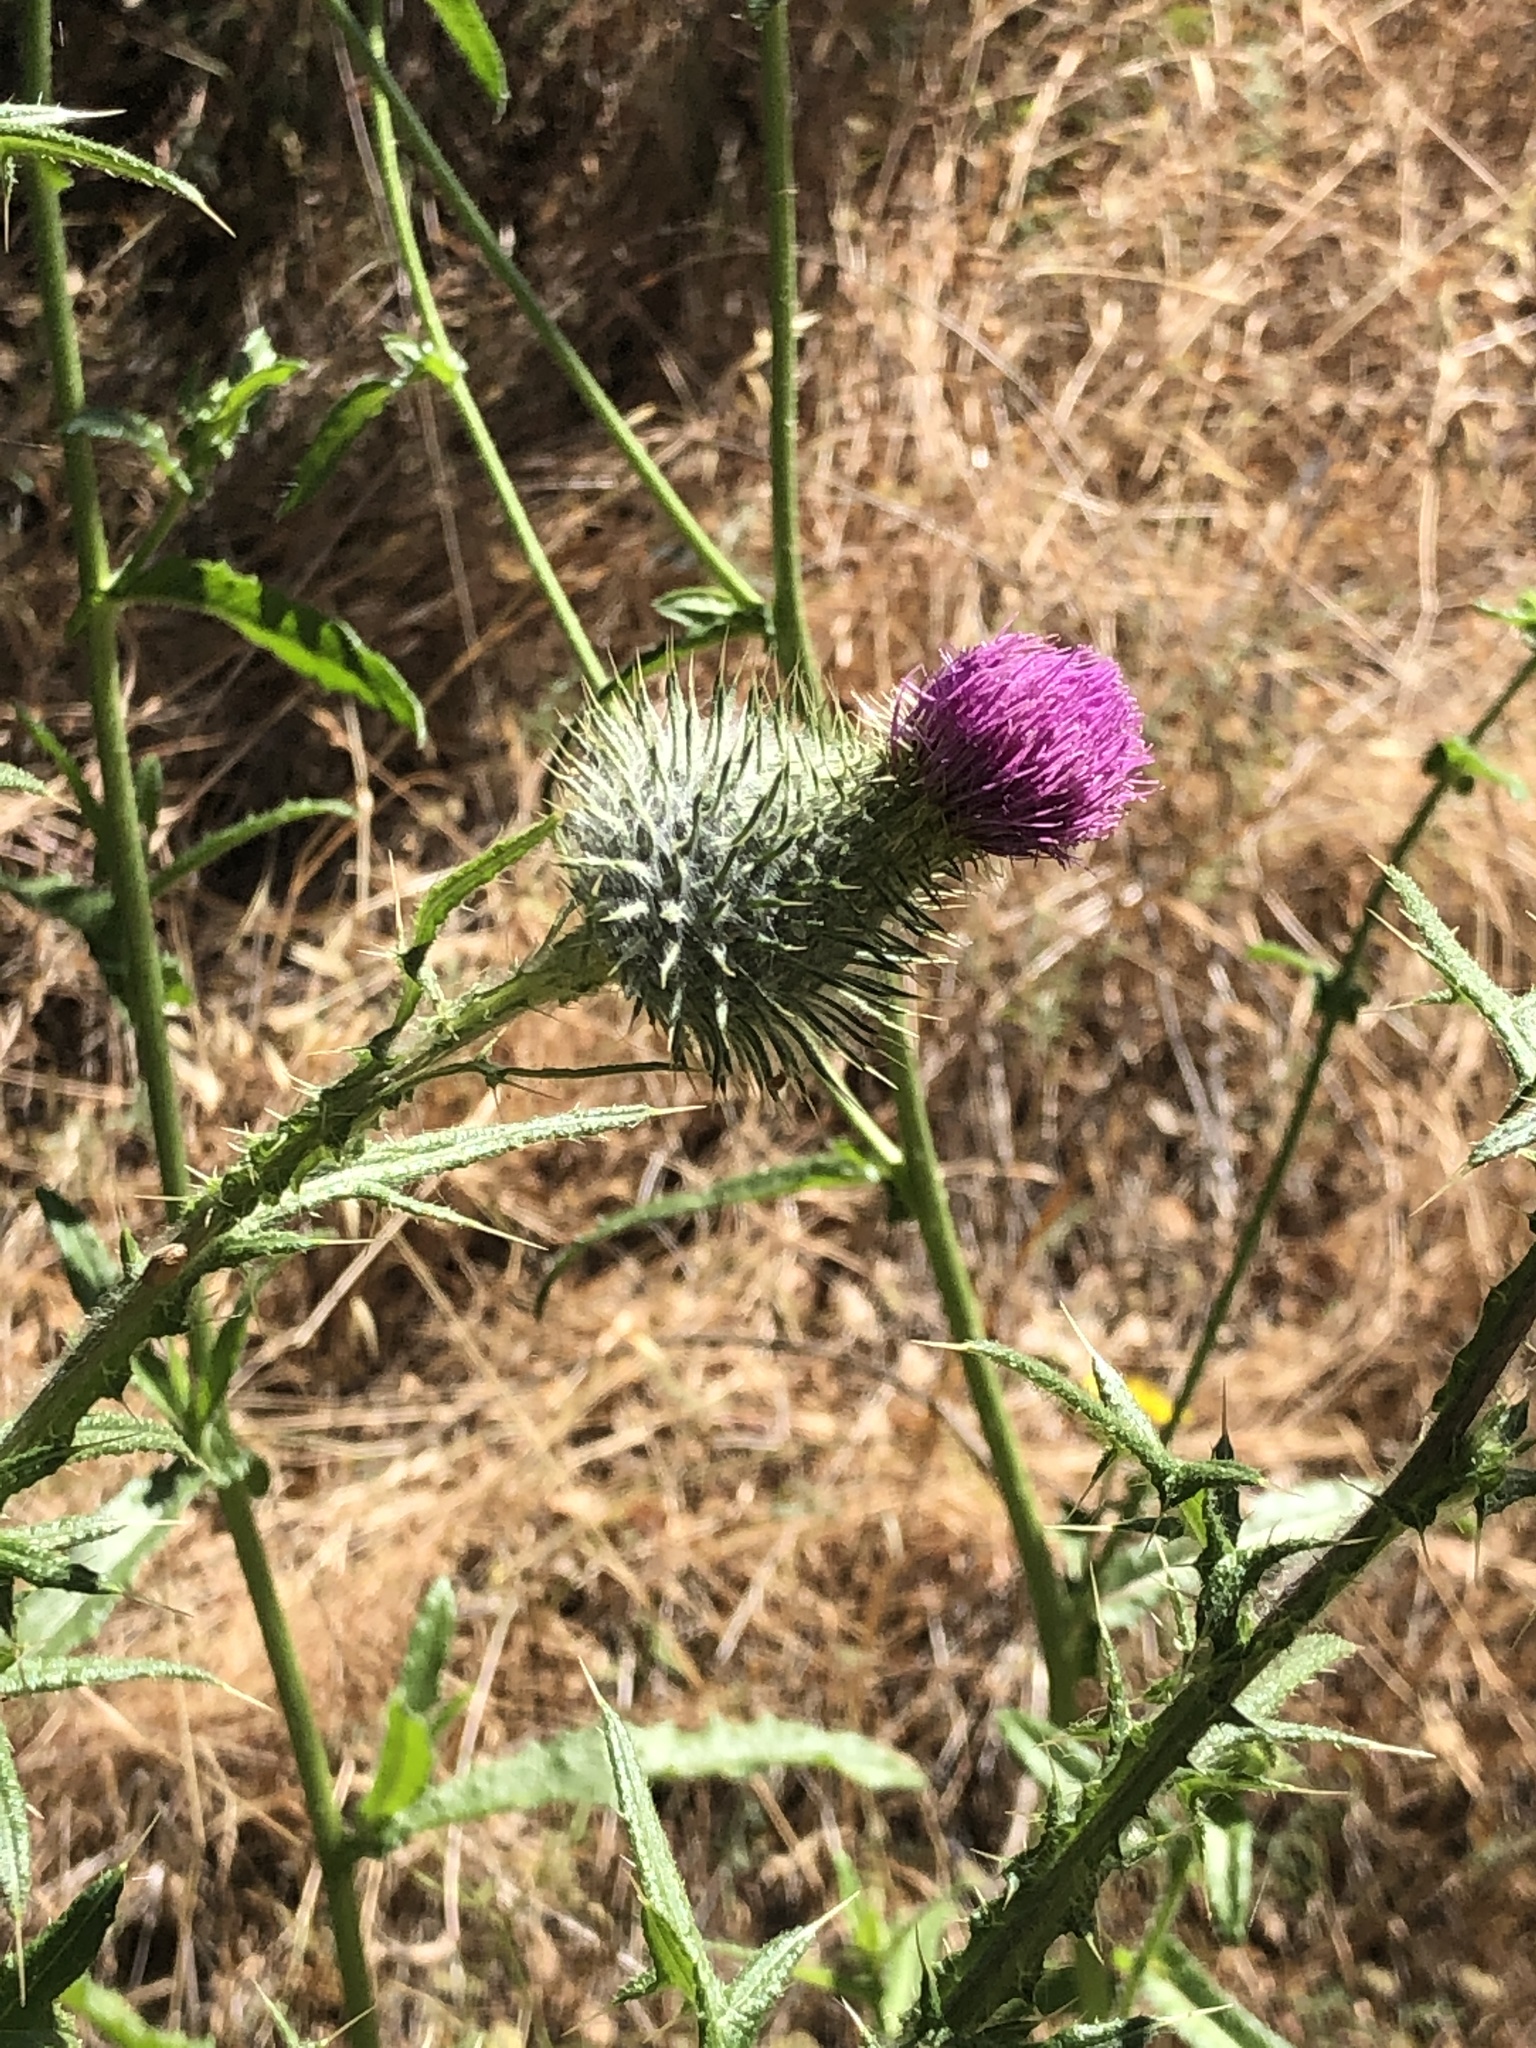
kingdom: Plantae
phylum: Tracheophyta
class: Magnoliopsida
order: Asterales
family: Asteraceae
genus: Cirsium
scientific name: Cirsium vulgare
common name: Bull thistle
